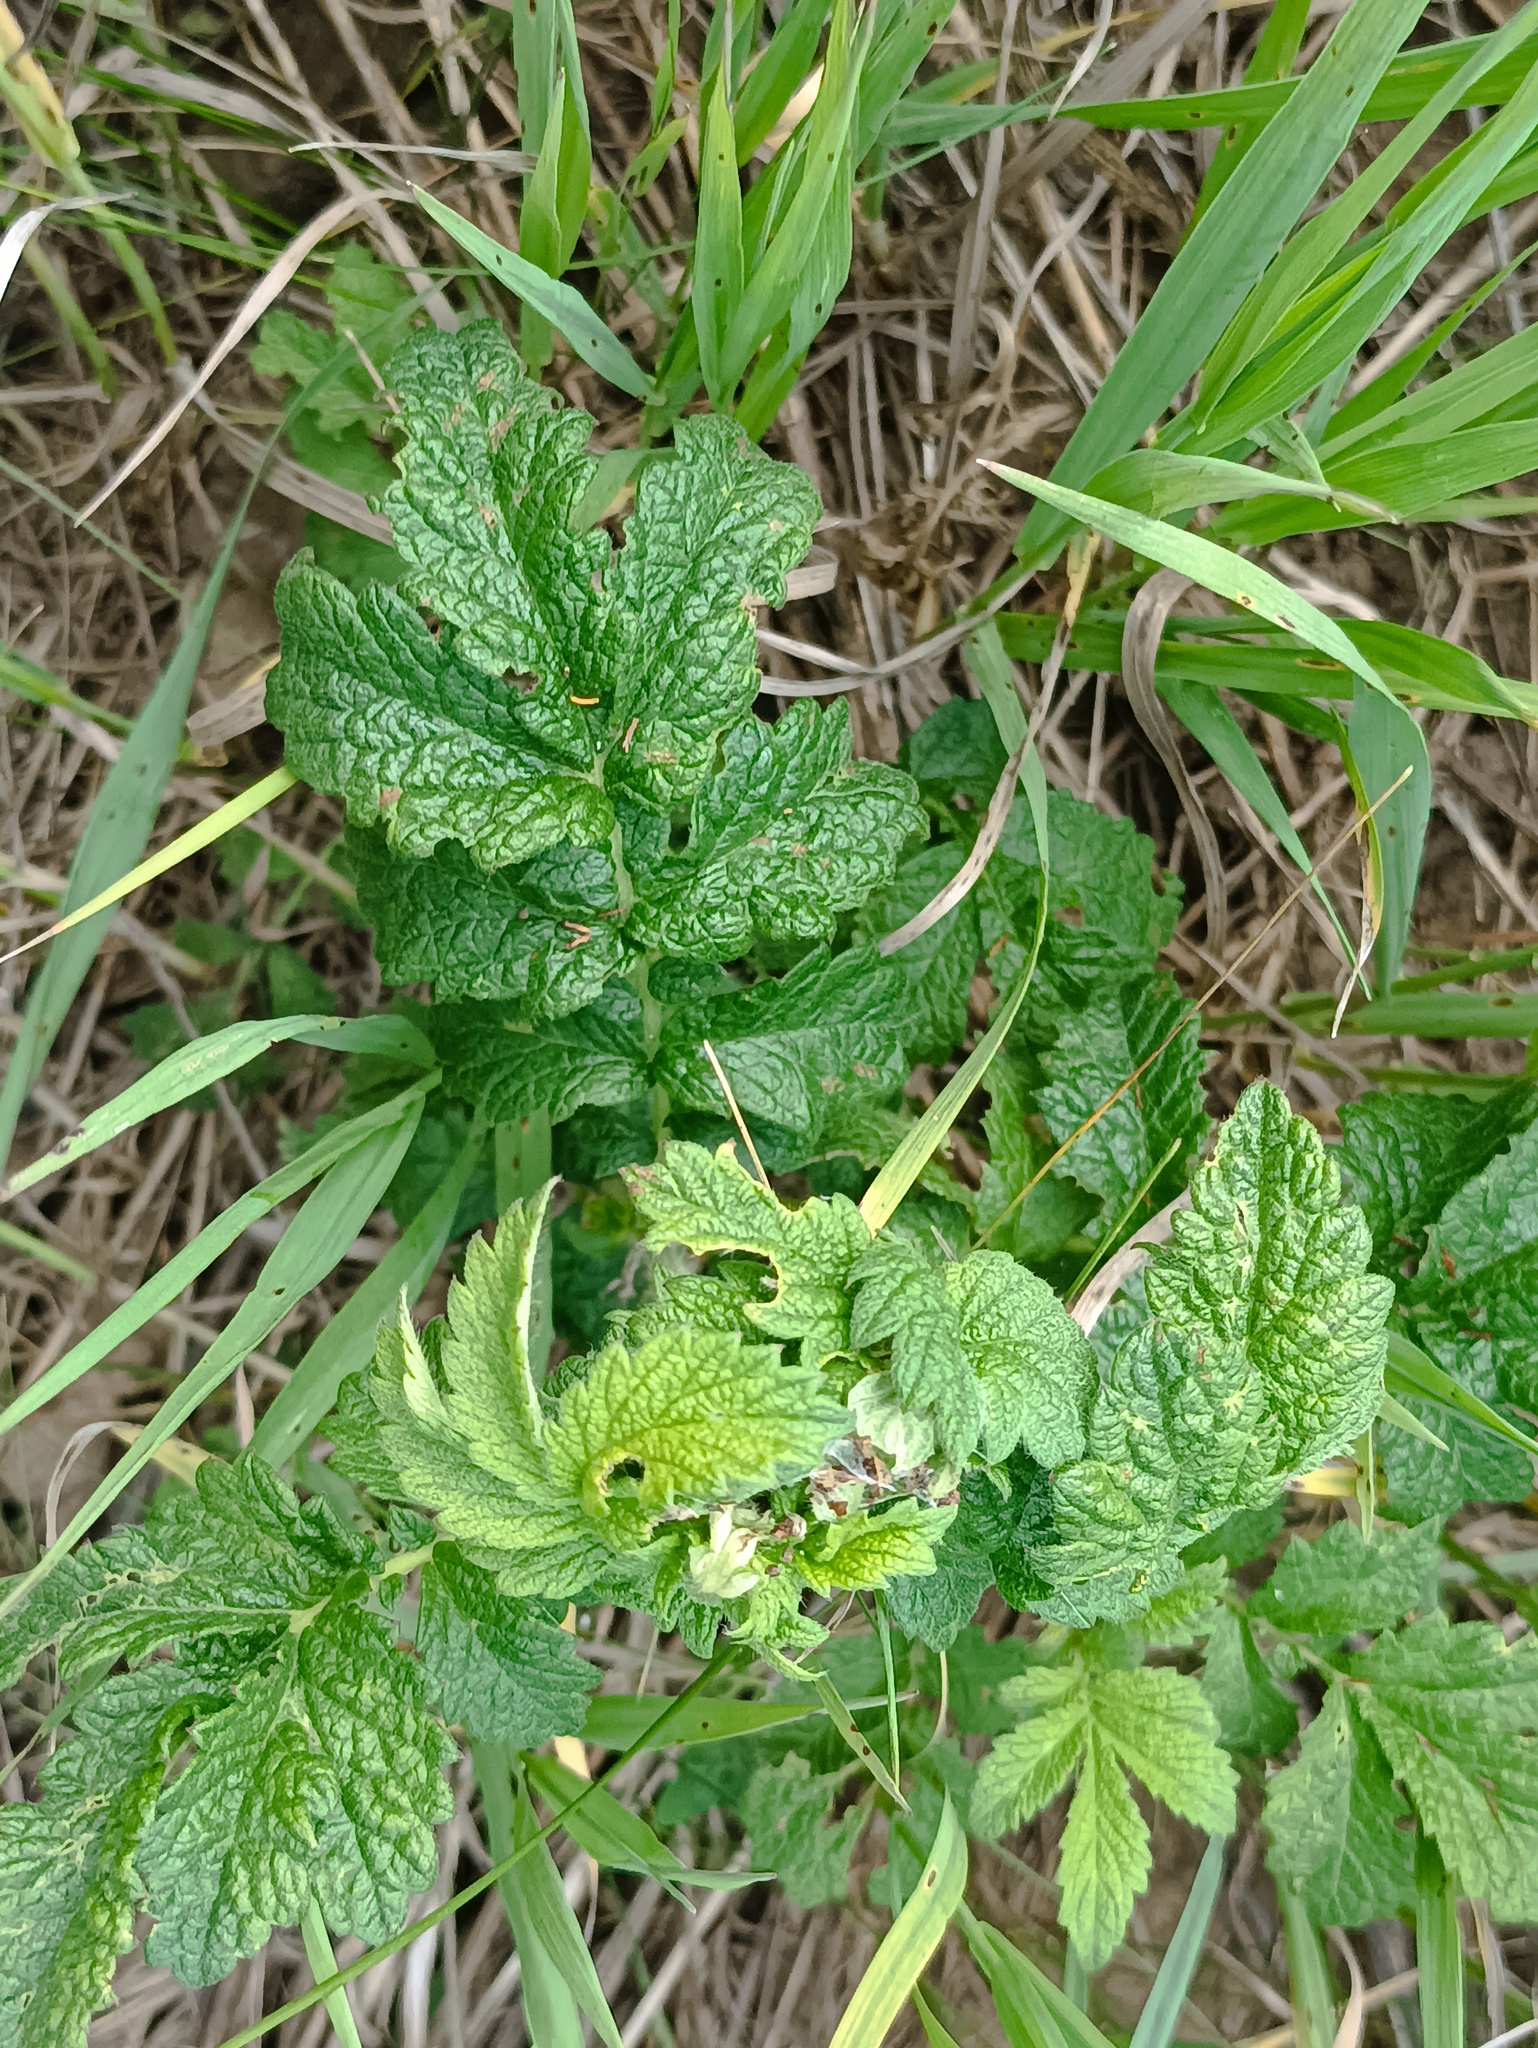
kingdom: Plantae
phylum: Tracheophyta
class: Magnoliopsida
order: Rosales
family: Rosaceae
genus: Agrimonia
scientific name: Agrimonia eupatoria
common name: Agrimony
